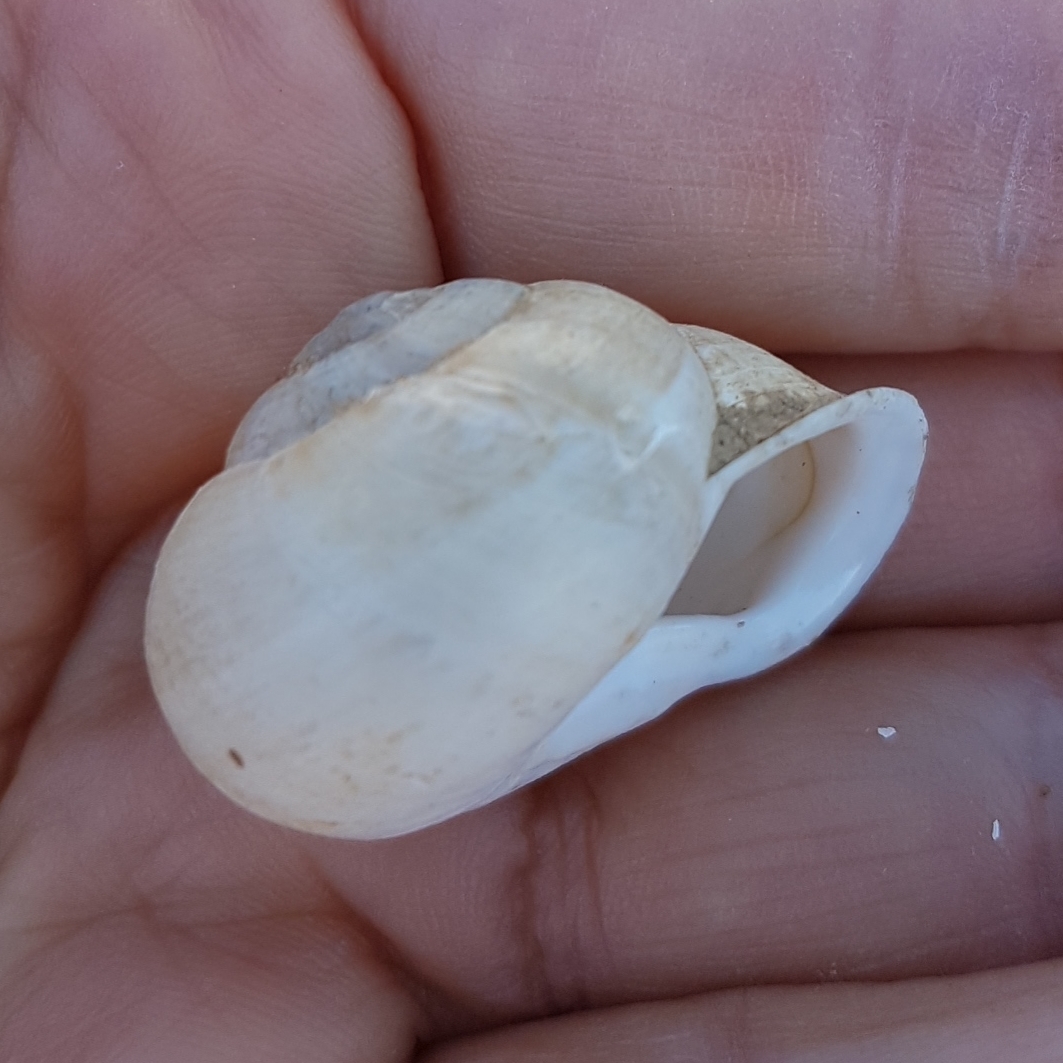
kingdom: Animalia
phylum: Mollusca
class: Gastropoda
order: Stylommatophora
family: Helicidae
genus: Eobania
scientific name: Eobania vermiculata
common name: Chocolateband snail
